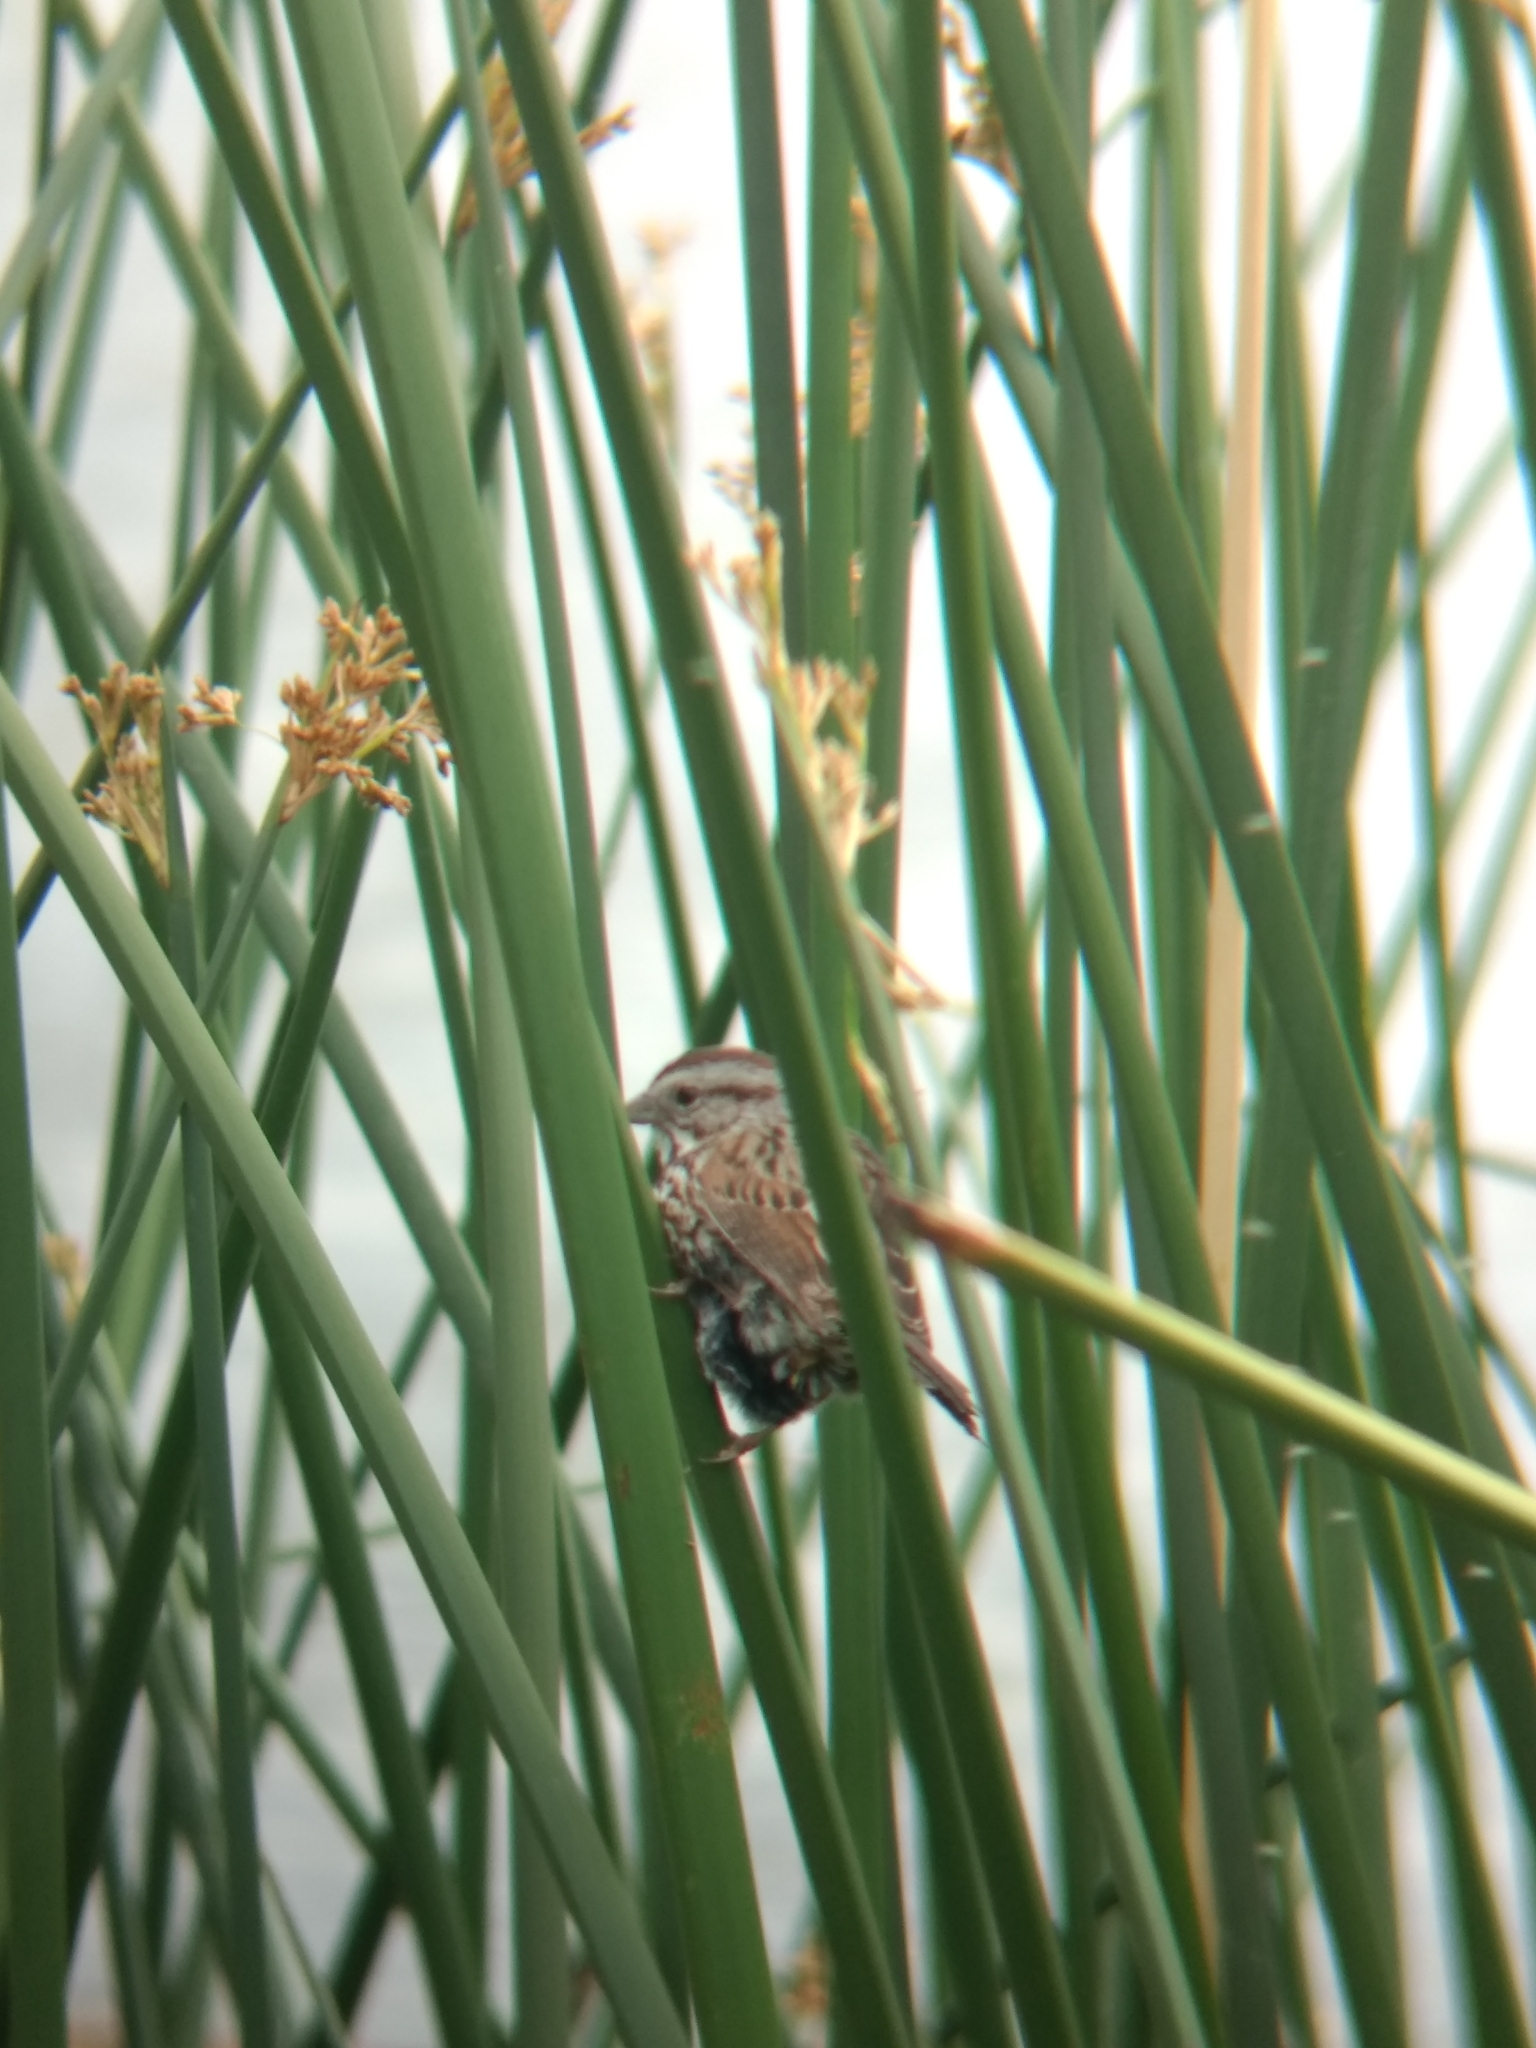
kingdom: Animalia
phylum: Chordata
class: Aves
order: Passeriformes
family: Passerellidae
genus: Melospiza
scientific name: Melospiza melodia
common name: Song sparrow
